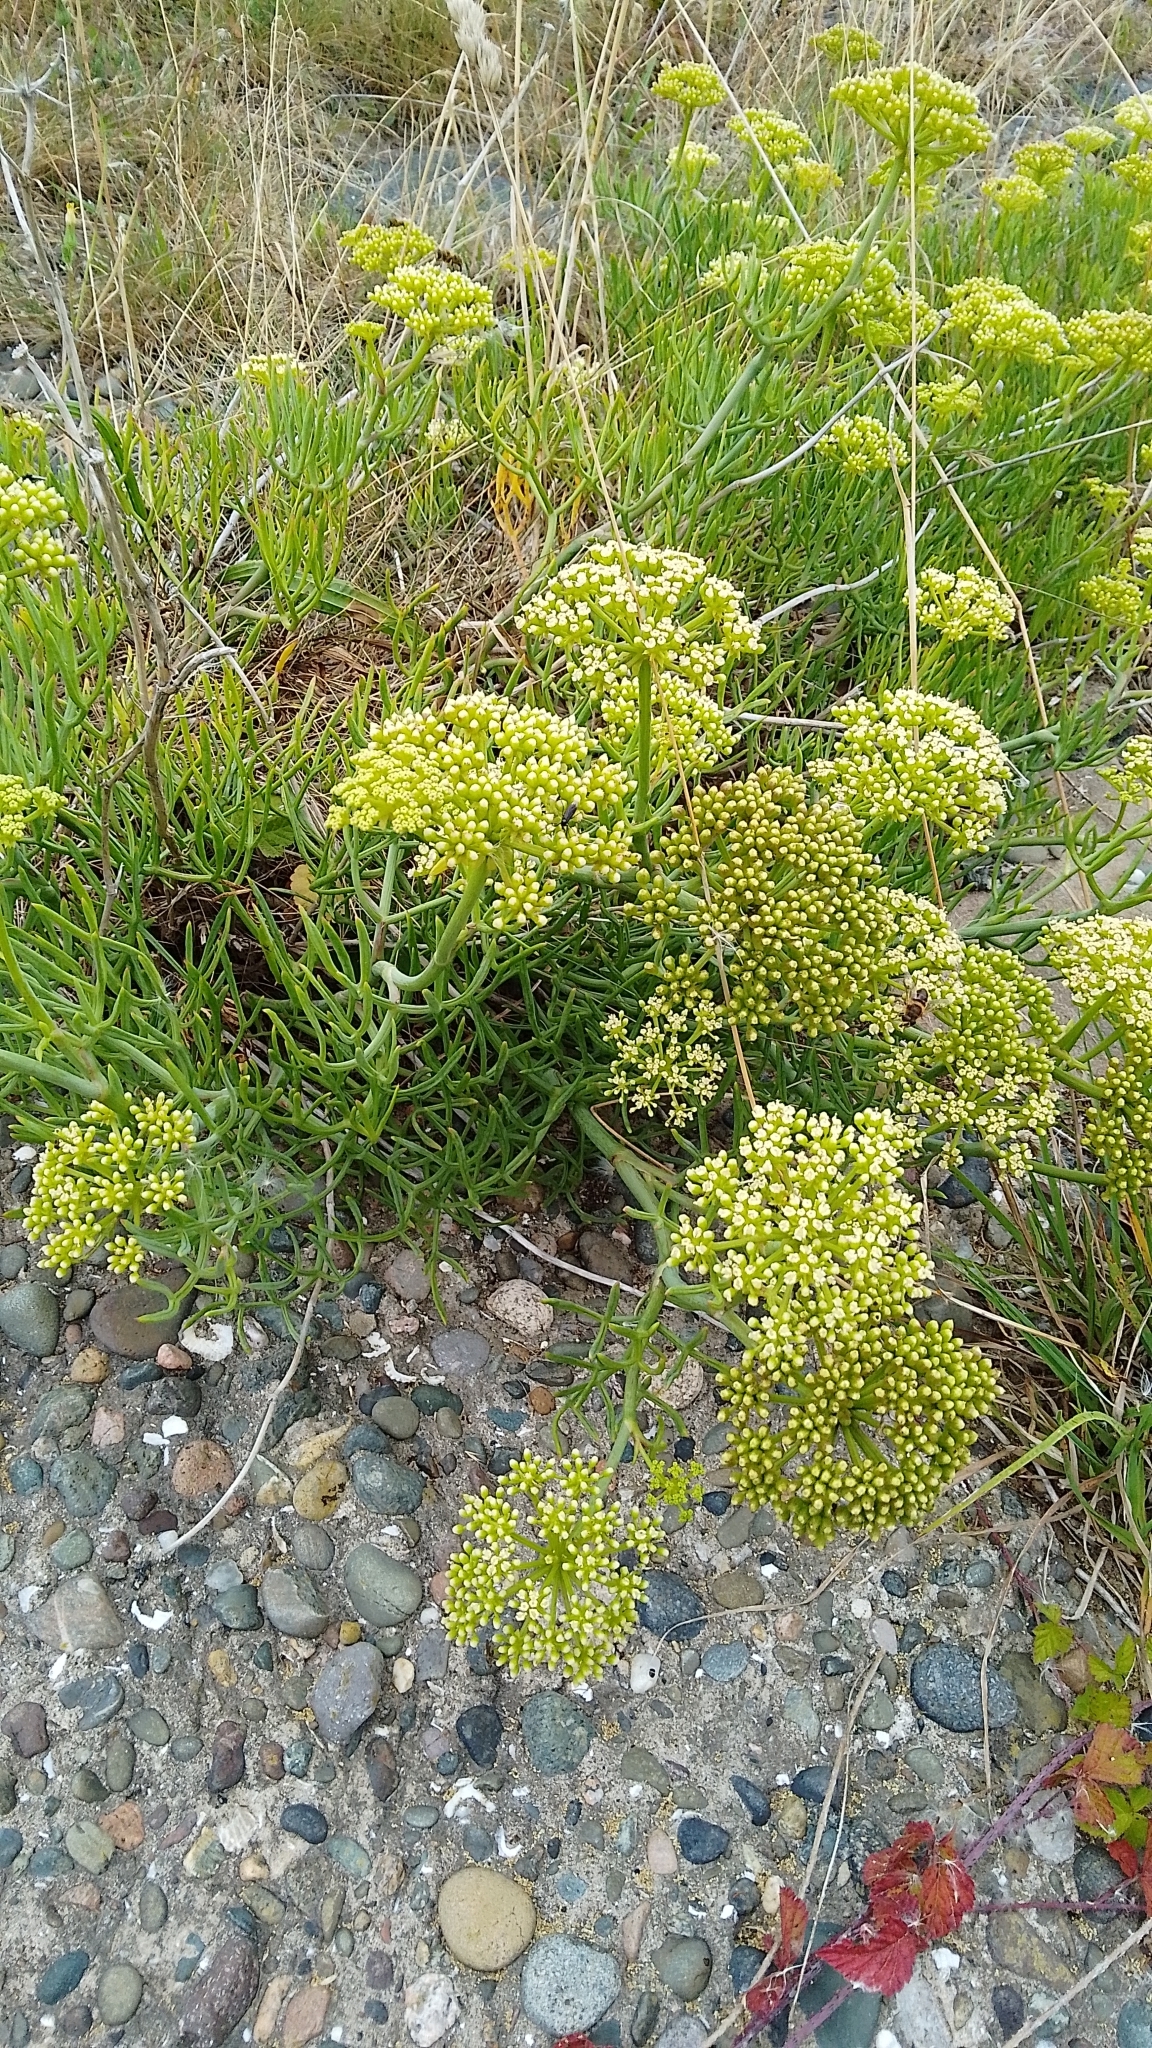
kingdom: Plantae
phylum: Tracheophyta
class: Magnoliopsida
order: Apiales
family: Apiaceae
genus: Crithmum
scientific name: Crithmum maritimum
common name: Rock samphire
